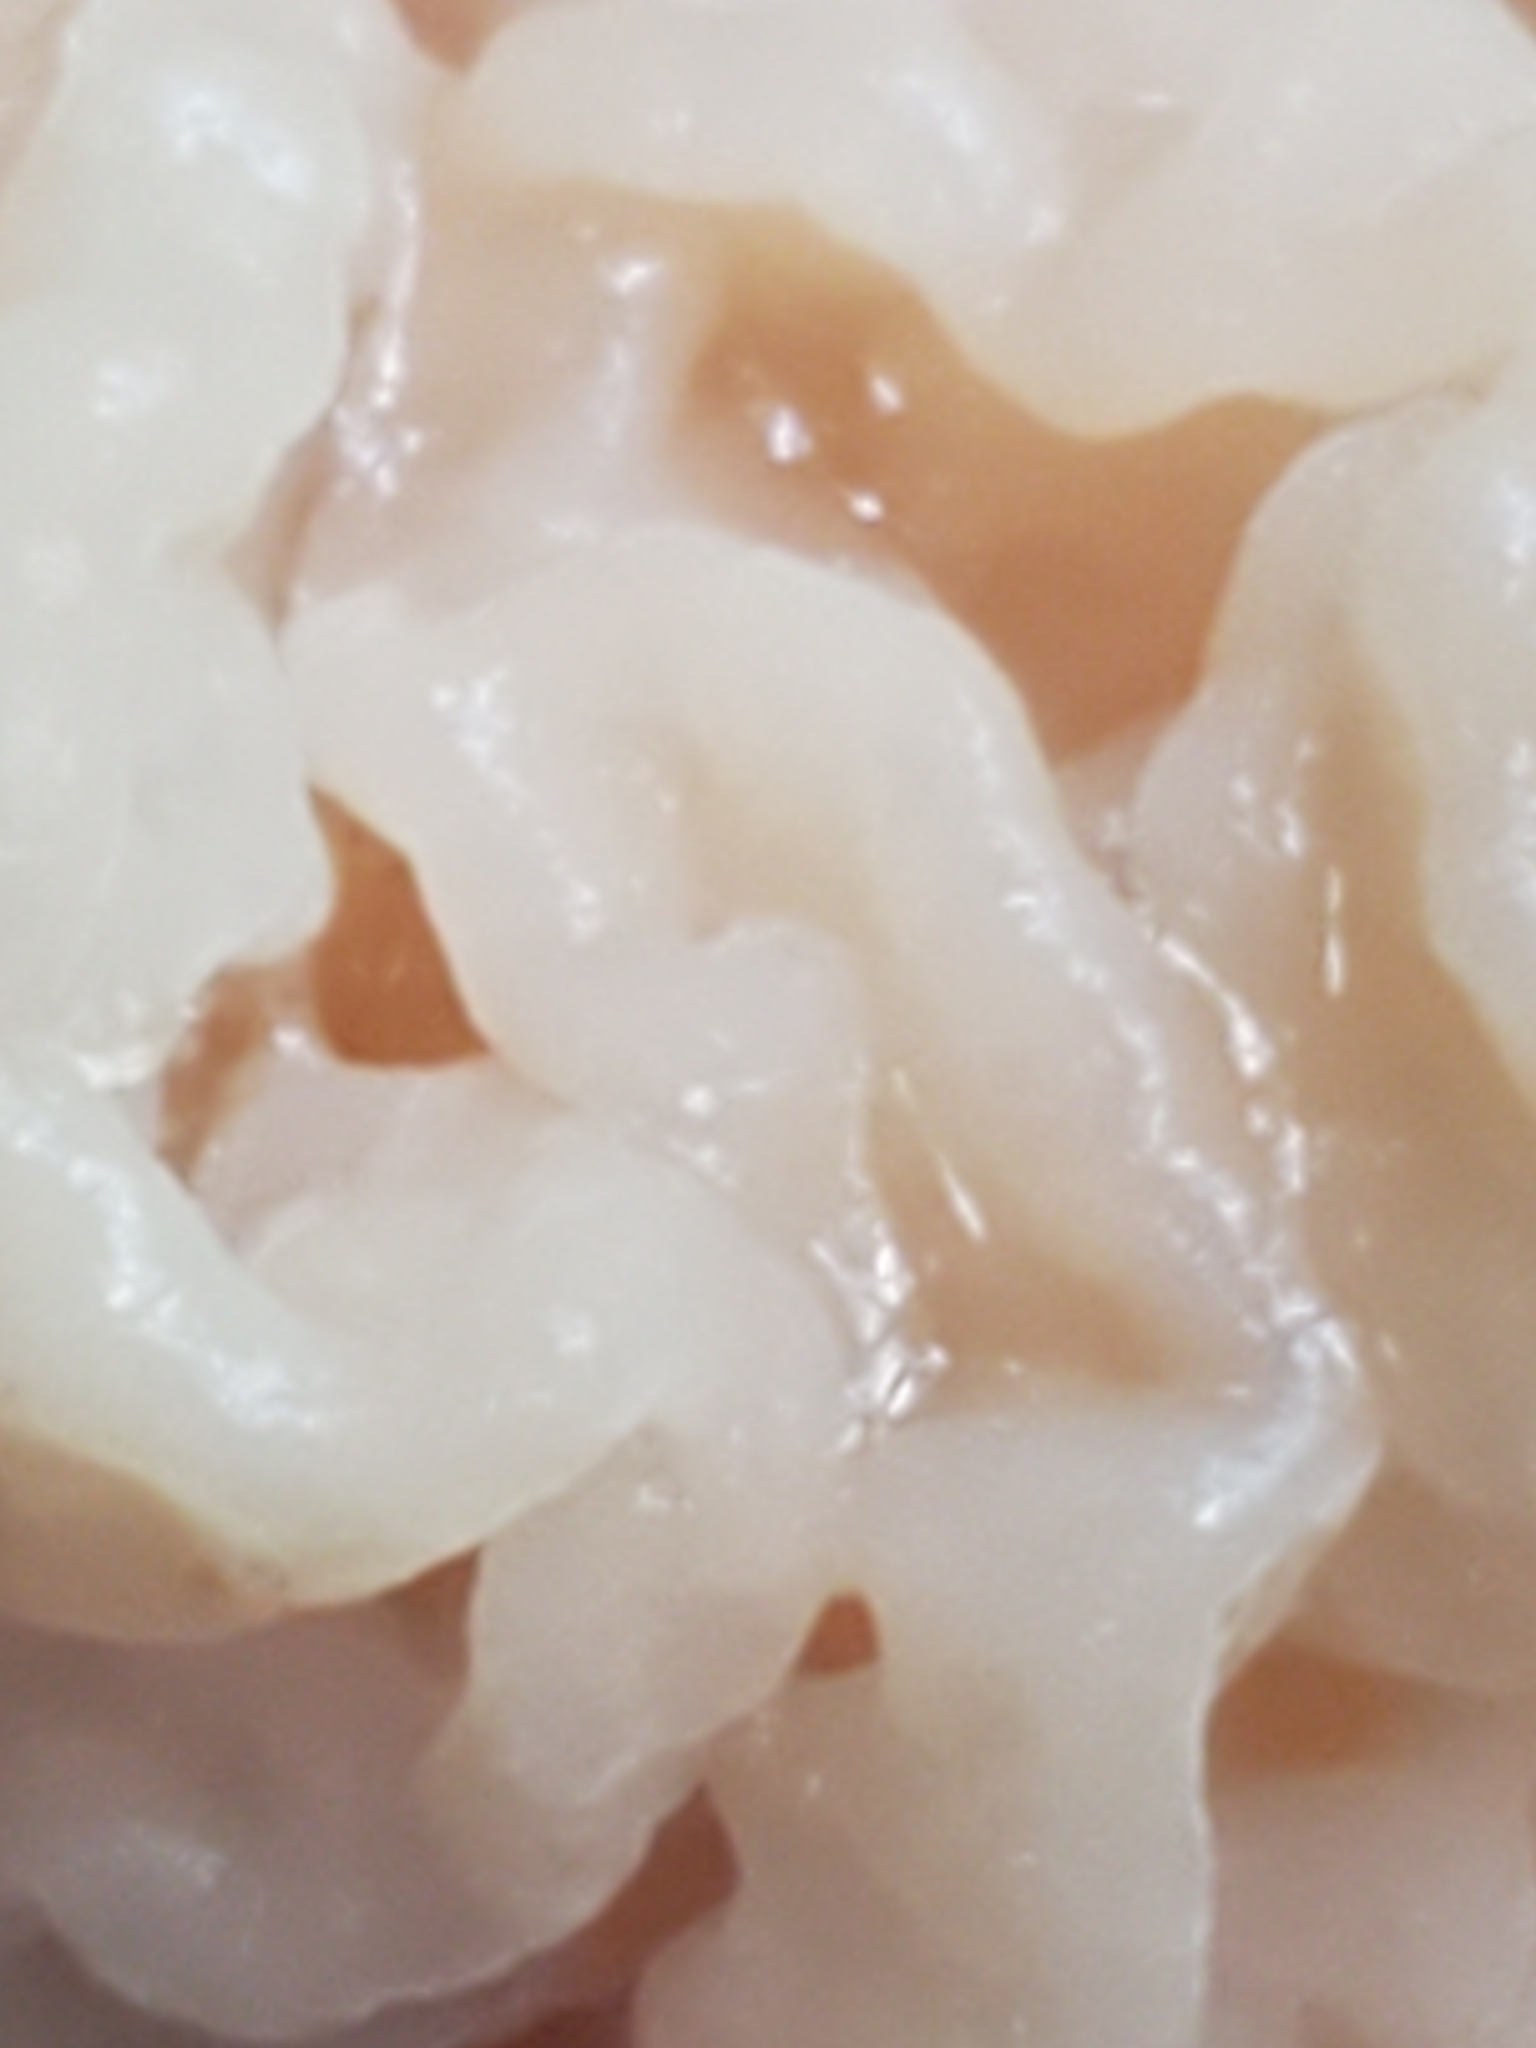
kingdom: Fungi
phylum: Basidiomycota
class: Tremellomycetes
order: Filobasidiales
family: Filobasidiaceae
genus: Syzygospora
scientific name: Syzygospora mycetophila
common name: Collybia clouds
